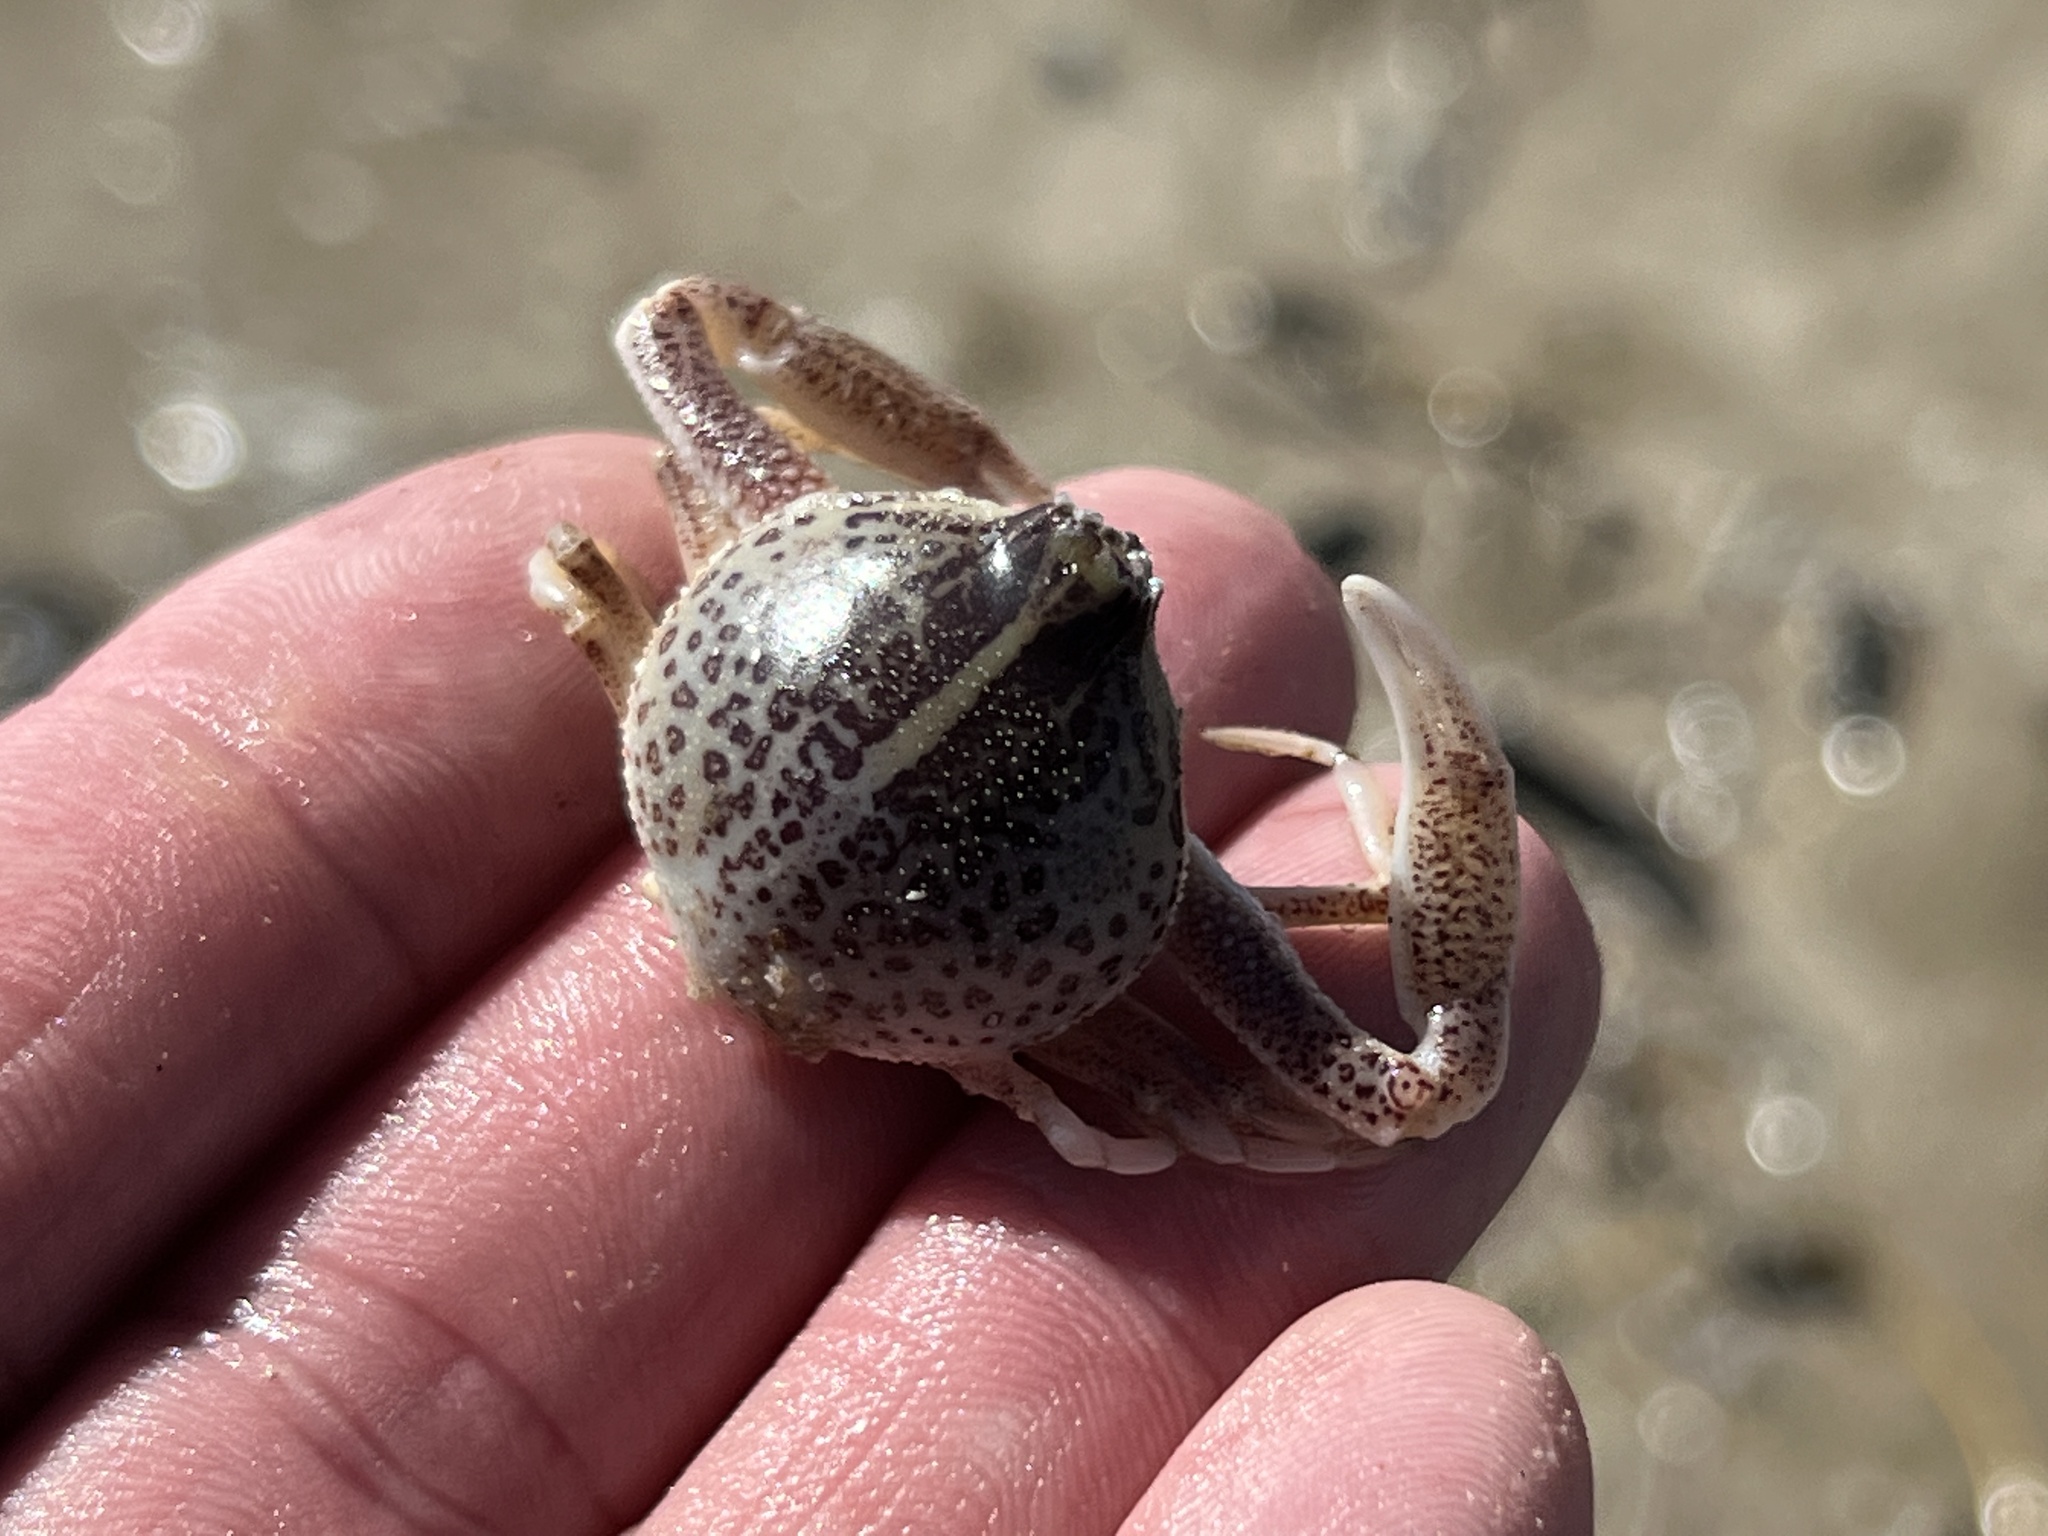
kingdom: Animalia
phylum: Arthropoda
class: Malacostraca
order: Decapoda
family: Leucosiidae
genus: Persephona
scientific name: Persephona aquilonaris
